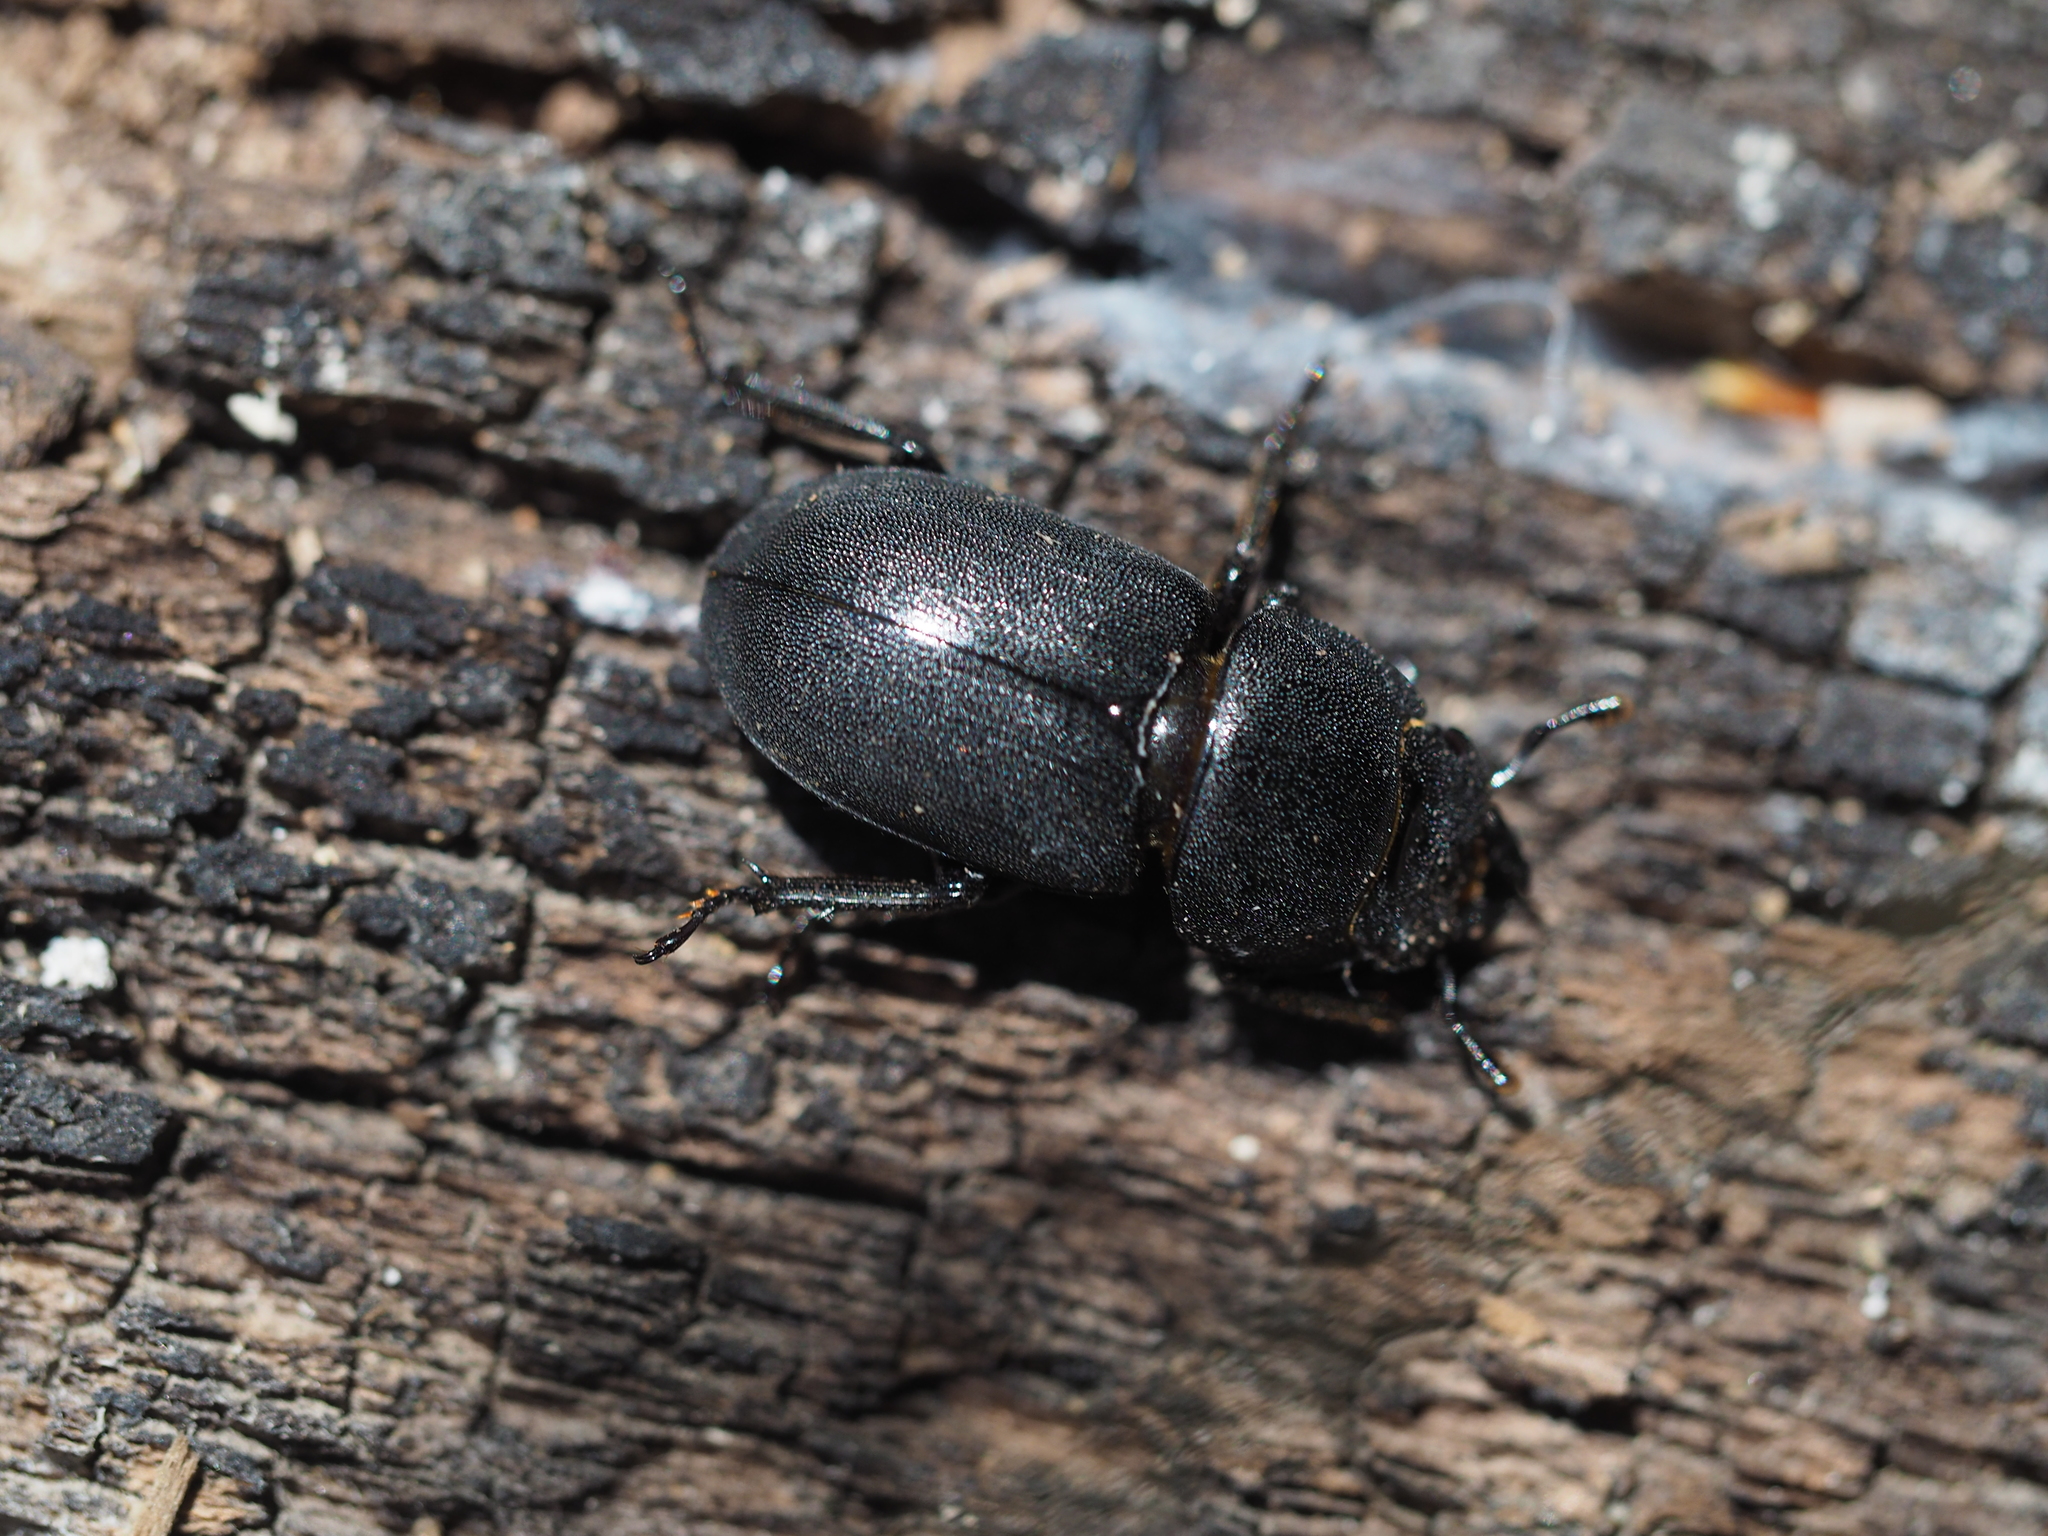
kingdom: Animalia
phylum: Arthropoda
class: Insecta
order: Coleoptera
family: Lucanidae
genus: Dorcus
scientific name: Dorcus parallelipipedus
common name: Lesser stag beetle
